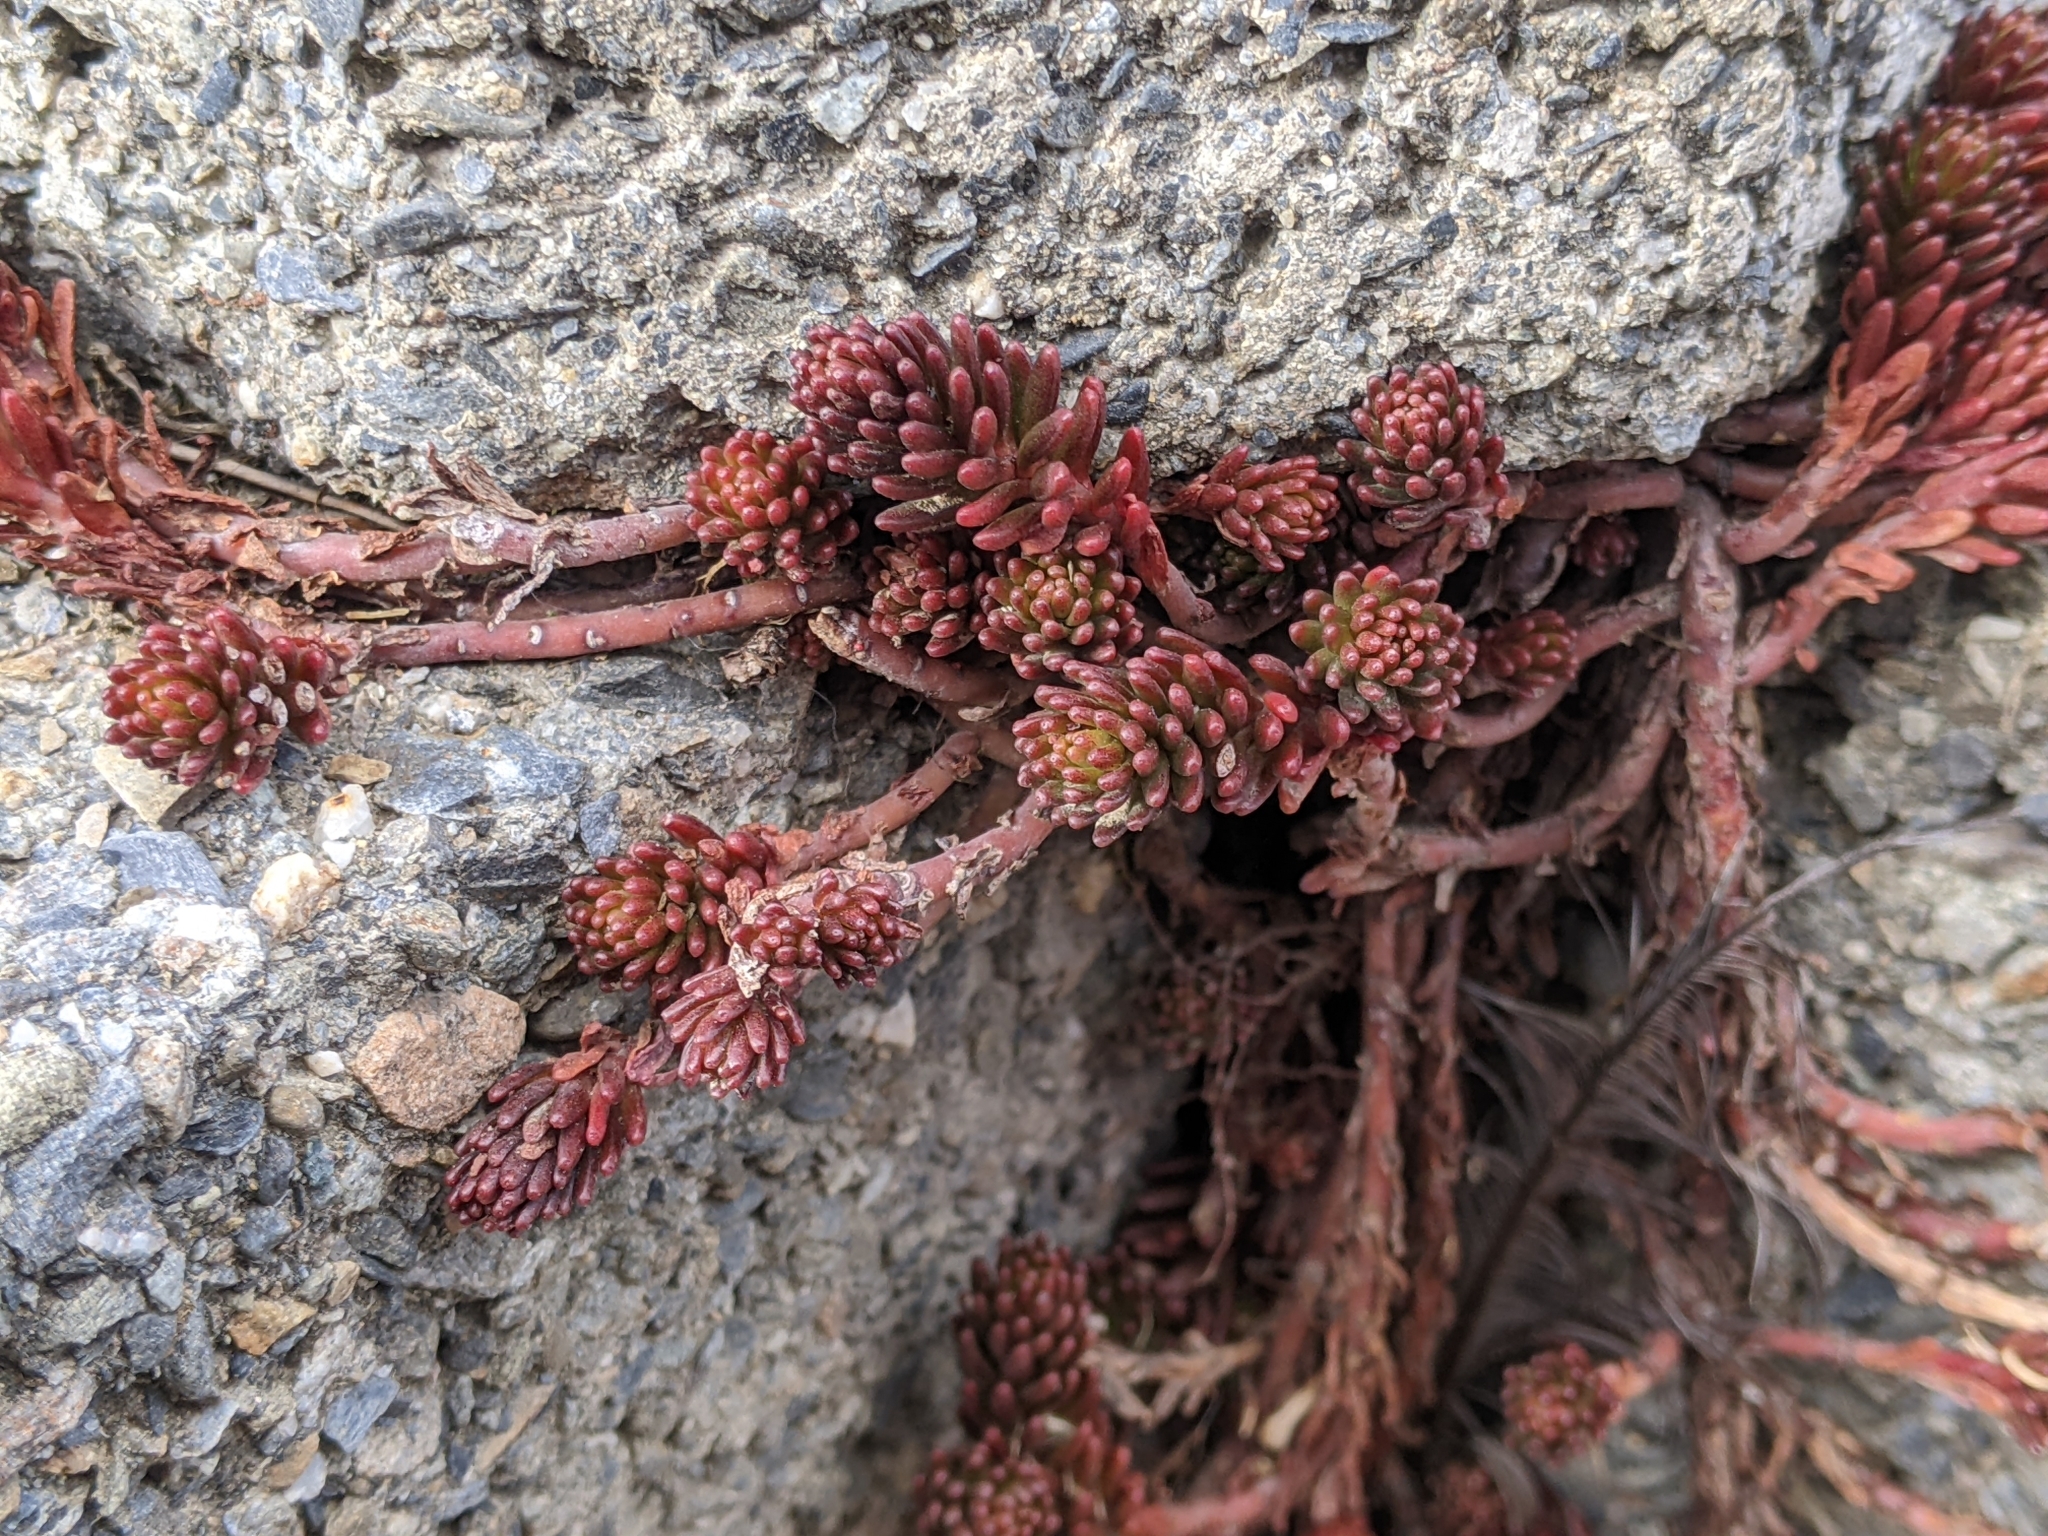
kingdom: Plantae
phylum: Tracheophyta
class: Magnoliopsida
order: Saxifragales
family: Crassulaceae
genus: Sedum
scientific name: Sedum morrisonense
